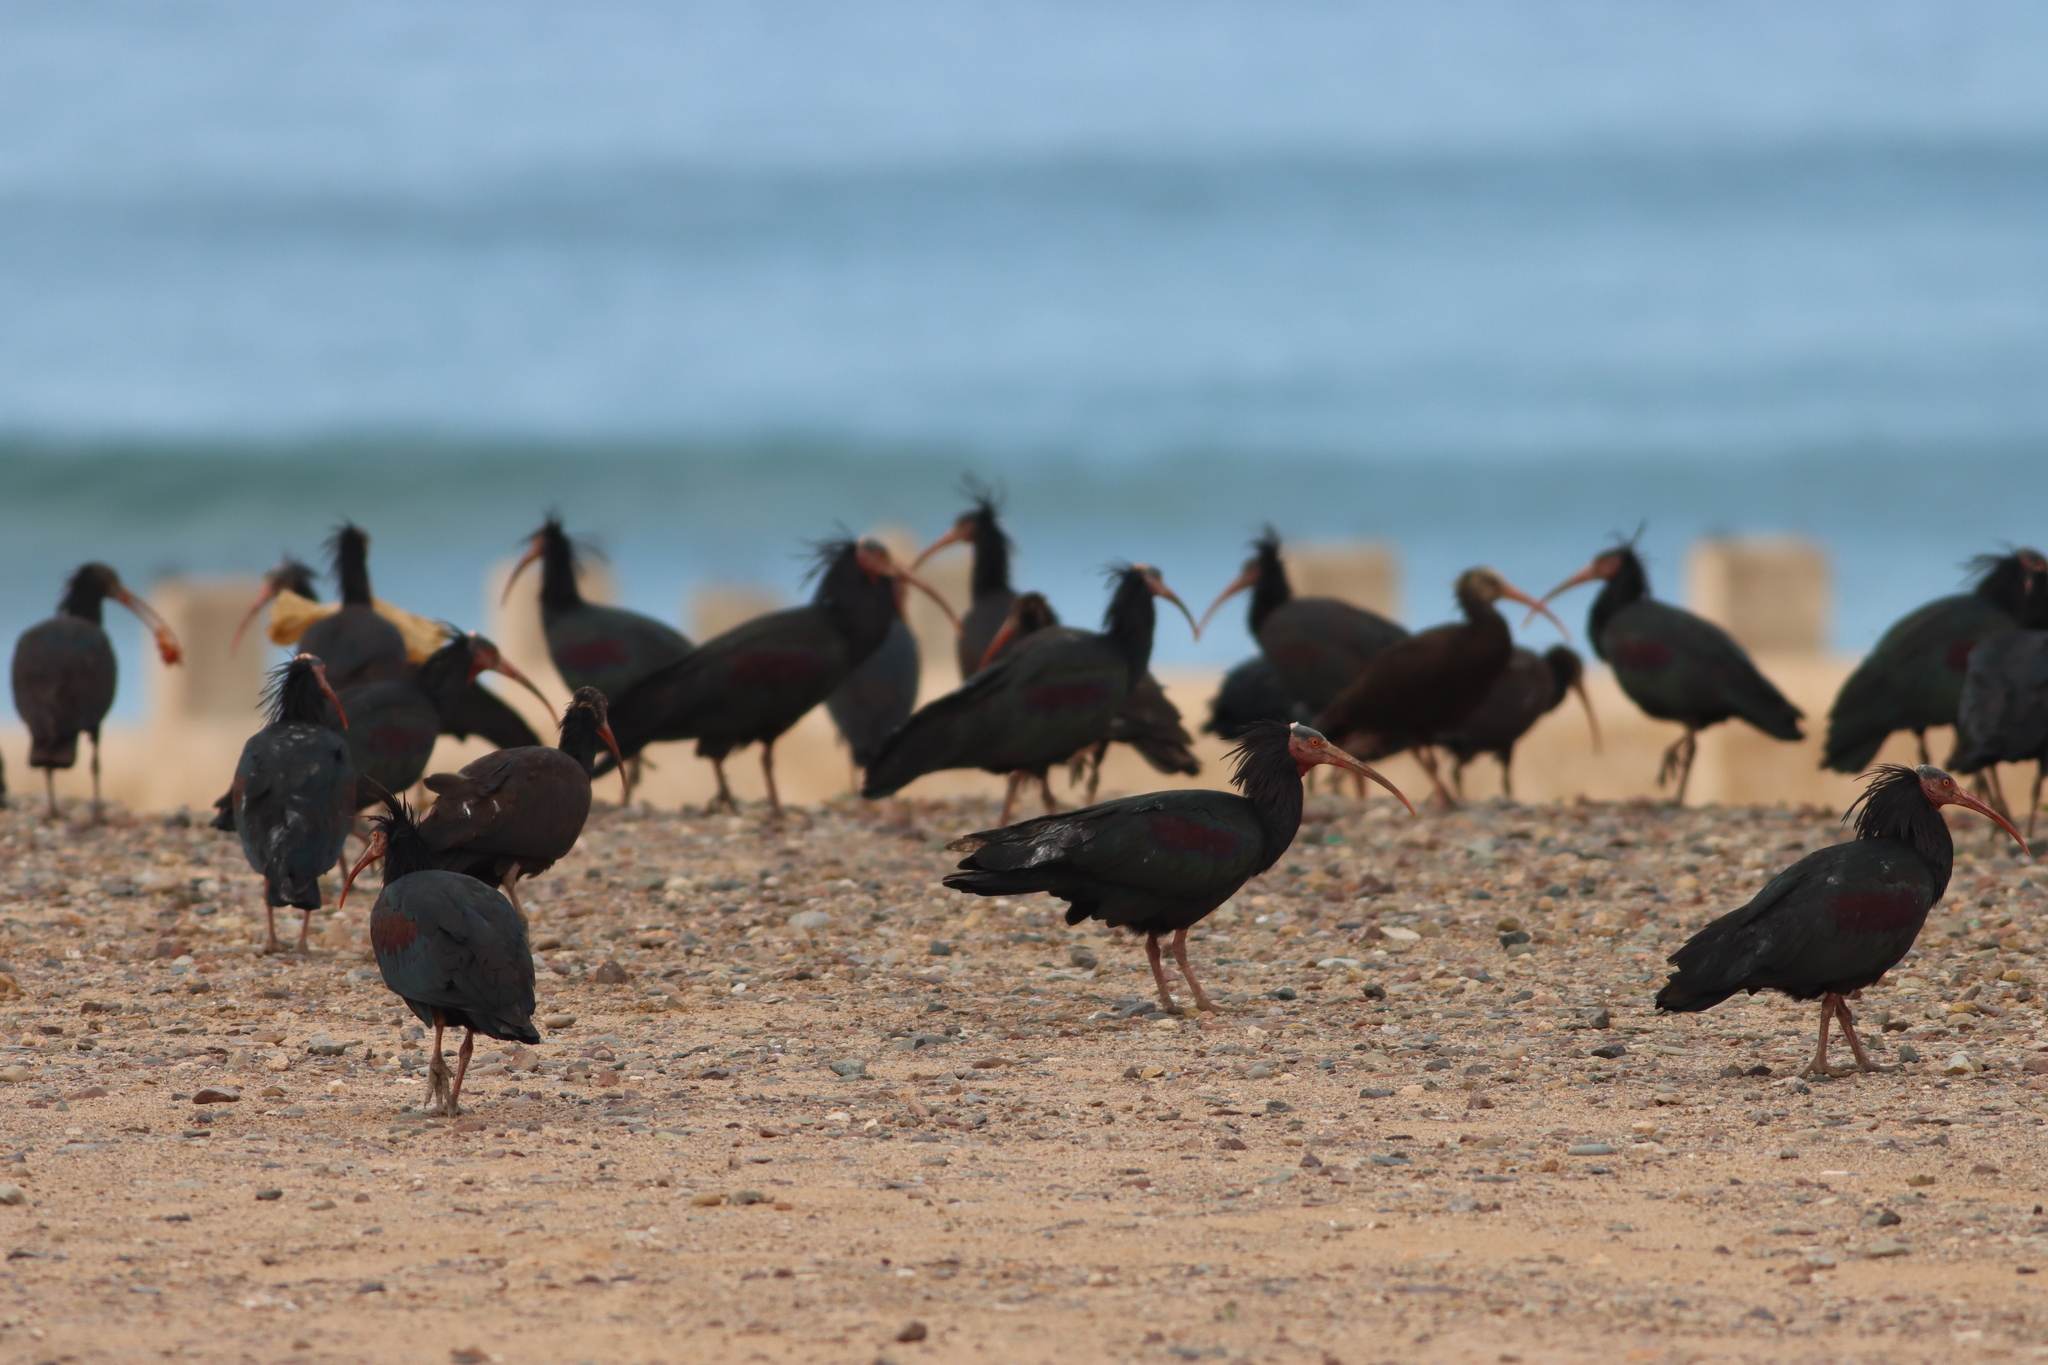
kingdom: Animalia
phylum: Chordata
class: Aves
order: Pelecaniformes
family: Threskiornithidae
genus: Geronticus
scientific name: Geronticus eremita
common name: Northern bald ibis
